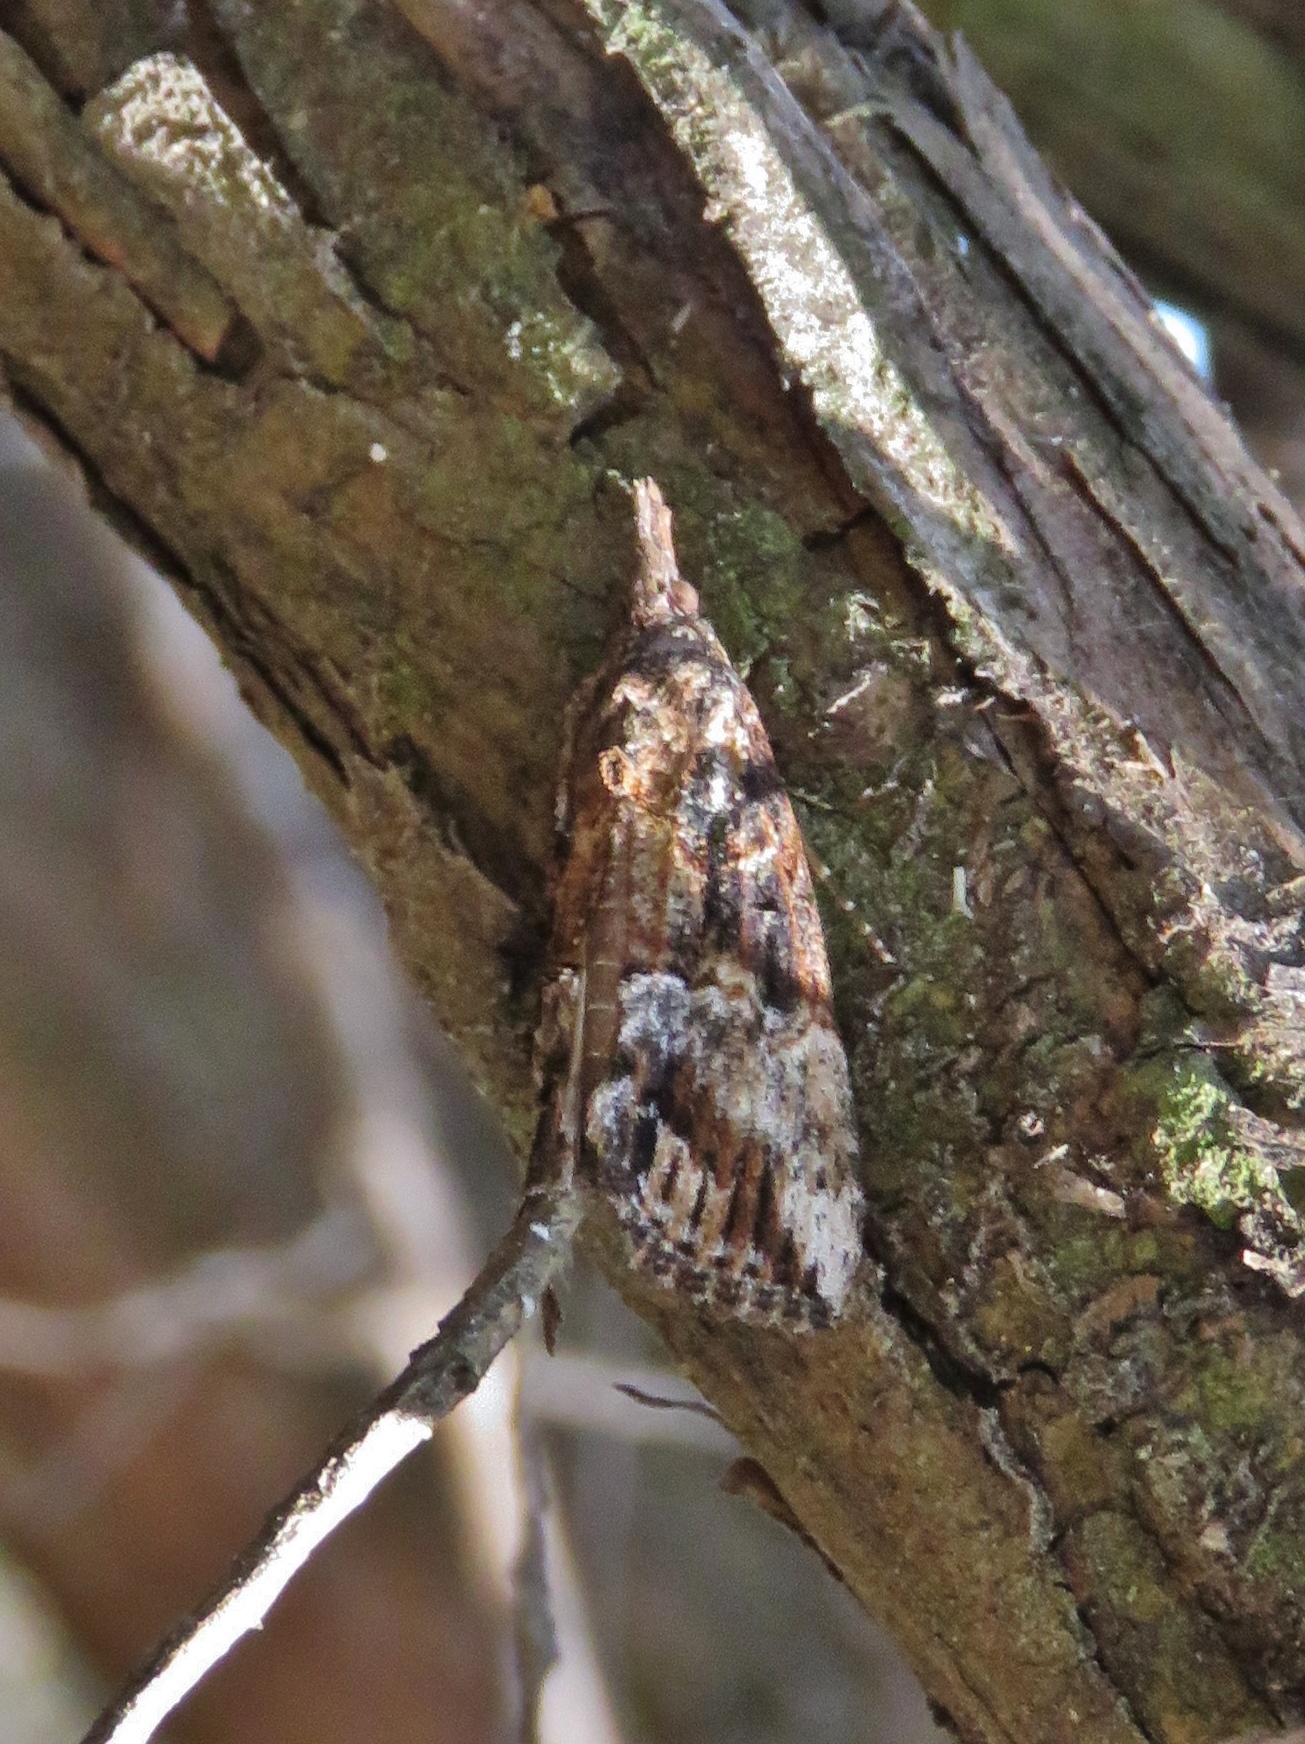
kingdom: Animalia
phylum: Arthropoda
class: Insecta
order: Lepidoptera
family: Erebidae
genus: Hypena
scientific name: Hypena scabra
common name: Green cloverworm
